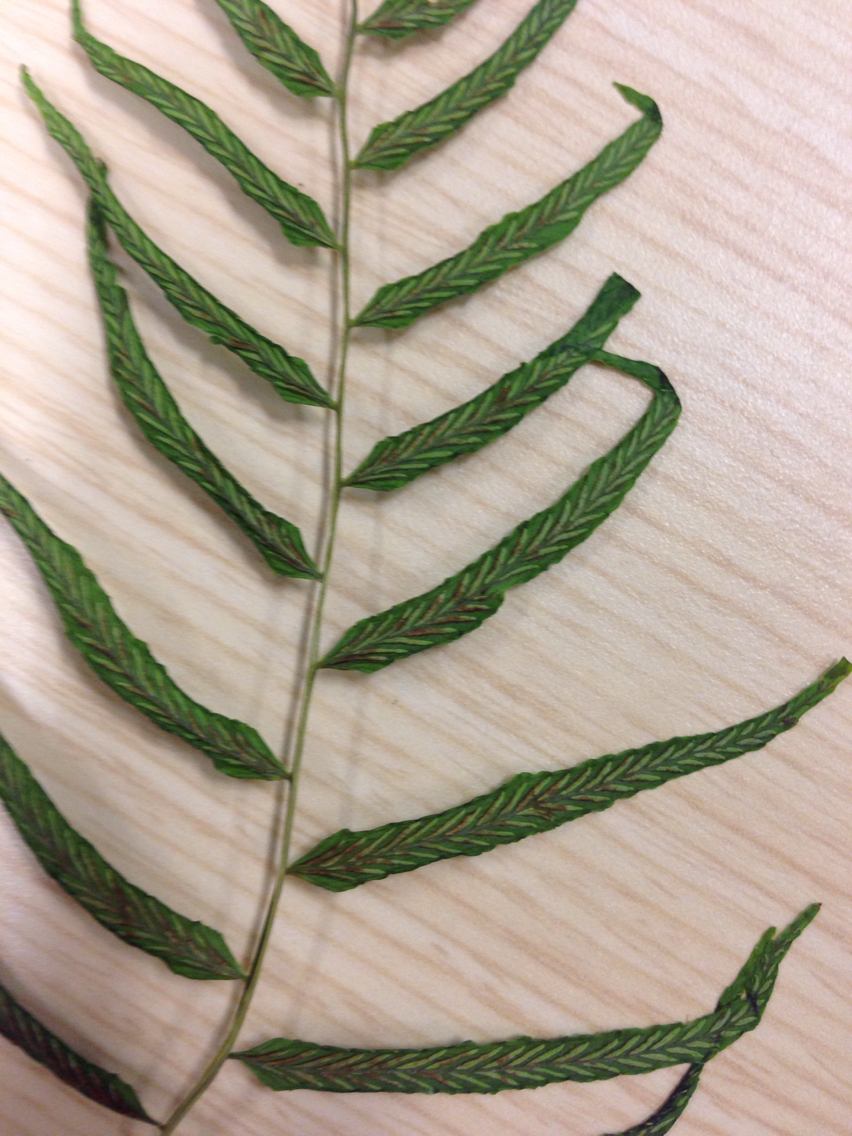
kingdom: Plantae
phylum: Tracheophyta
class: Polypodiopsida
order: Polypodiales
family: Diplaziopsidaceae
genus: Homalosorus
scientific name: Homalosorus pycnocarpos
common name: Glade fern
